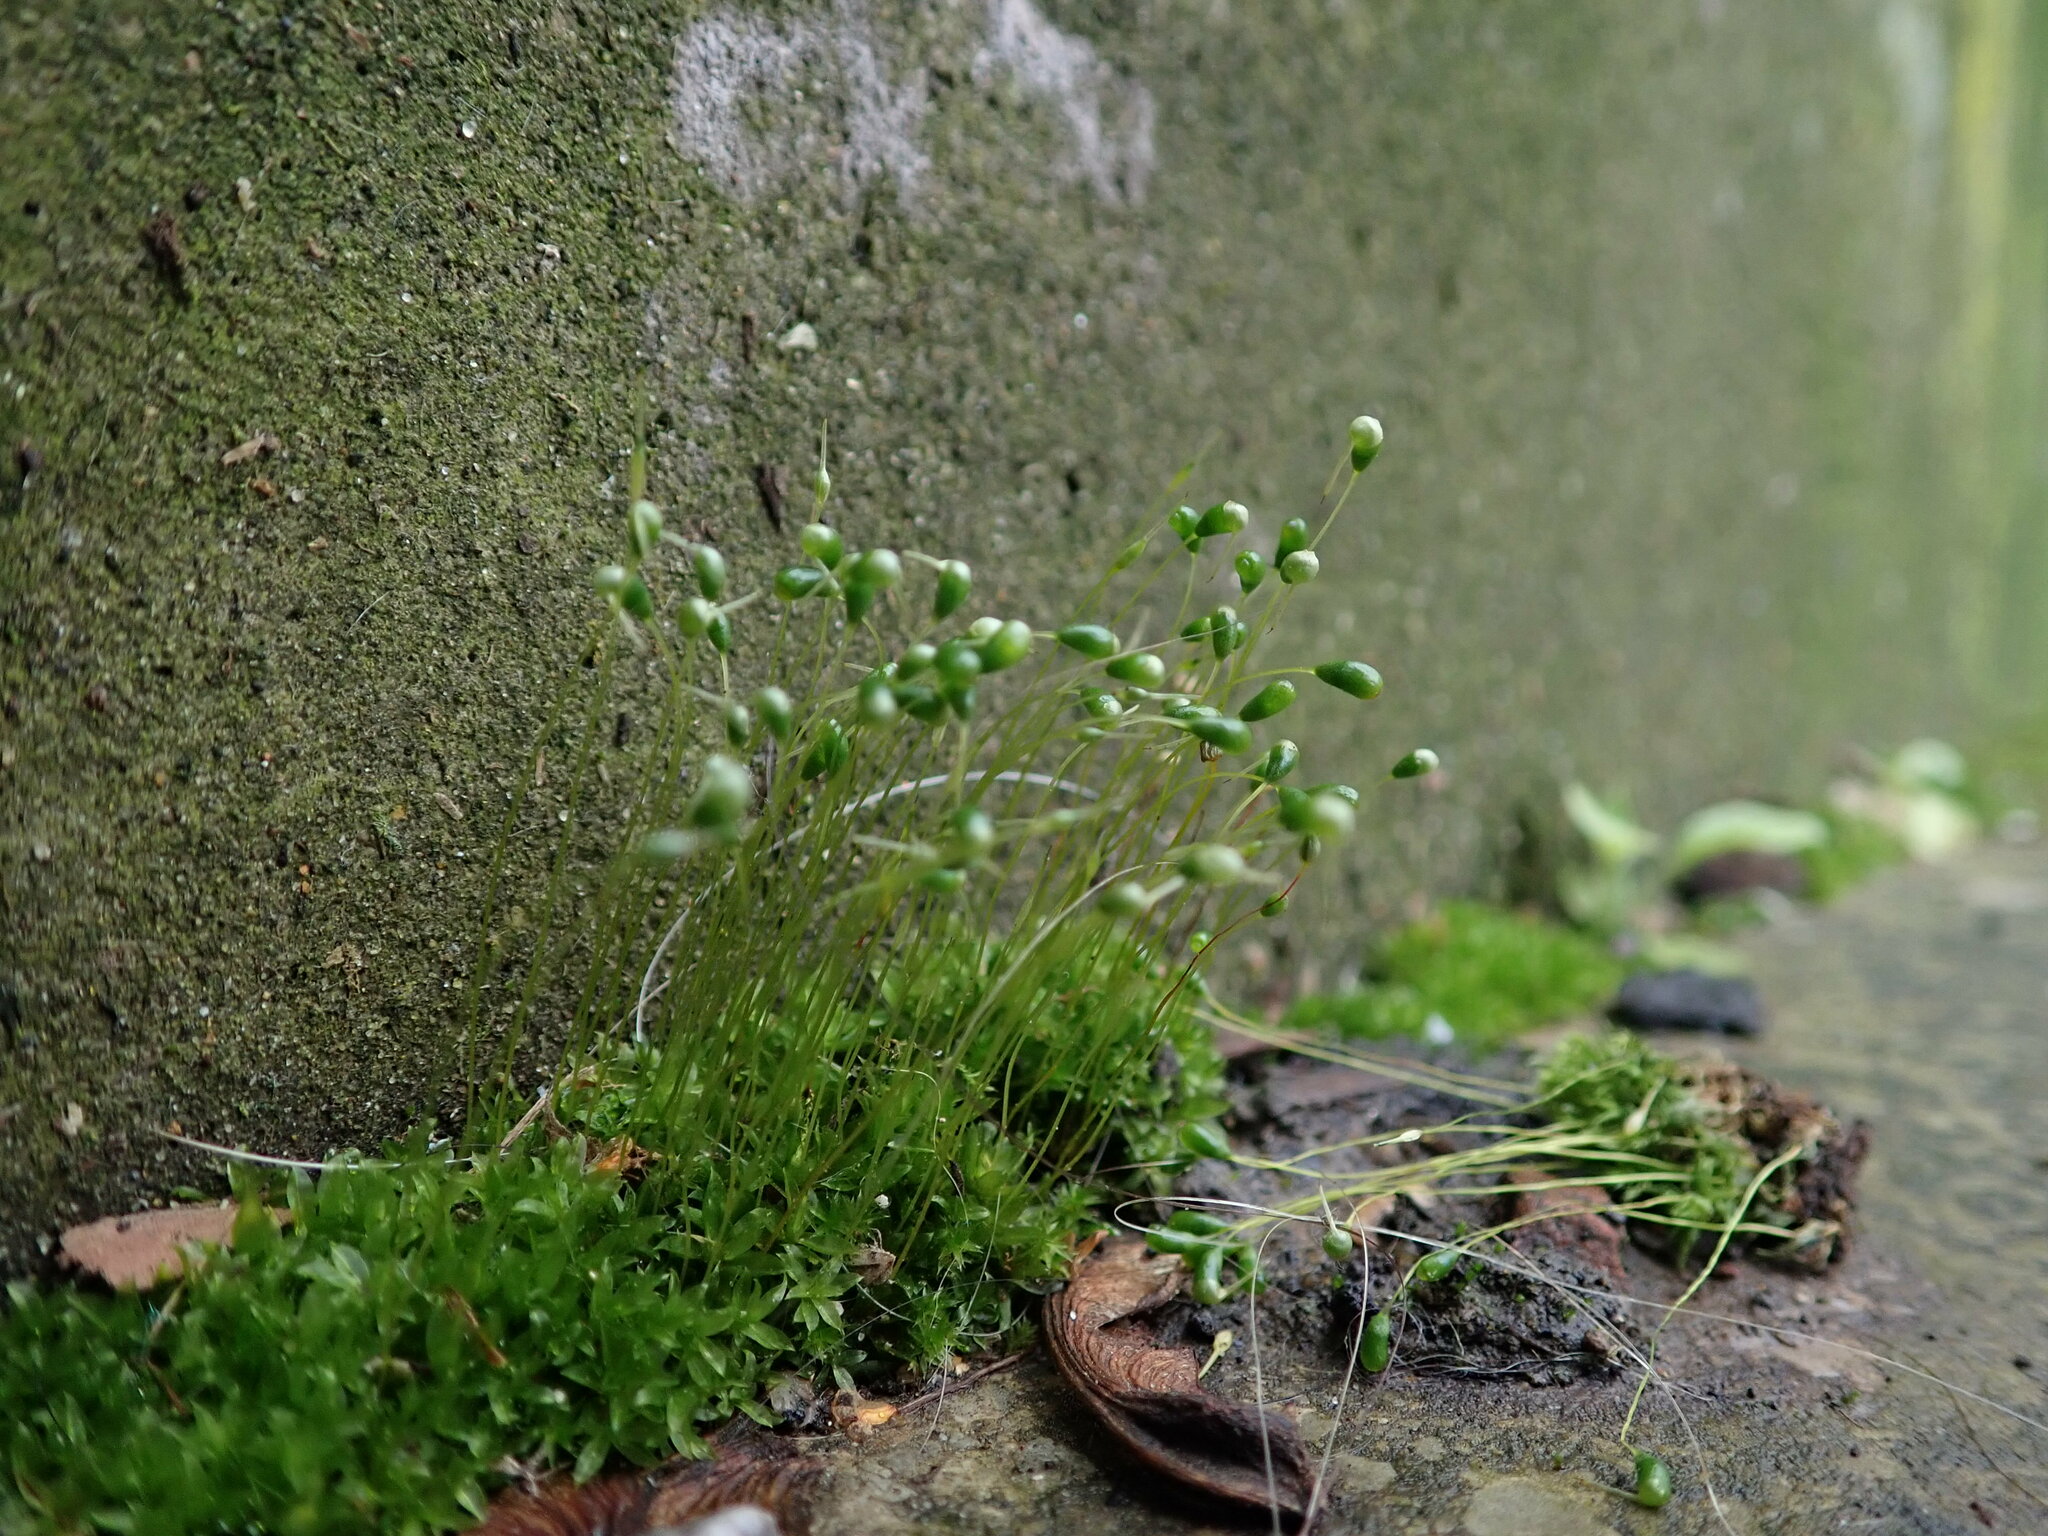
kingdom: Plantae
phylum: Bryophyta
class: Bryopsida
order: Funariales
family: Funariaceae
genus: Funaria
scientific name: Funaria hygrometrica
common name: Common cord moss
